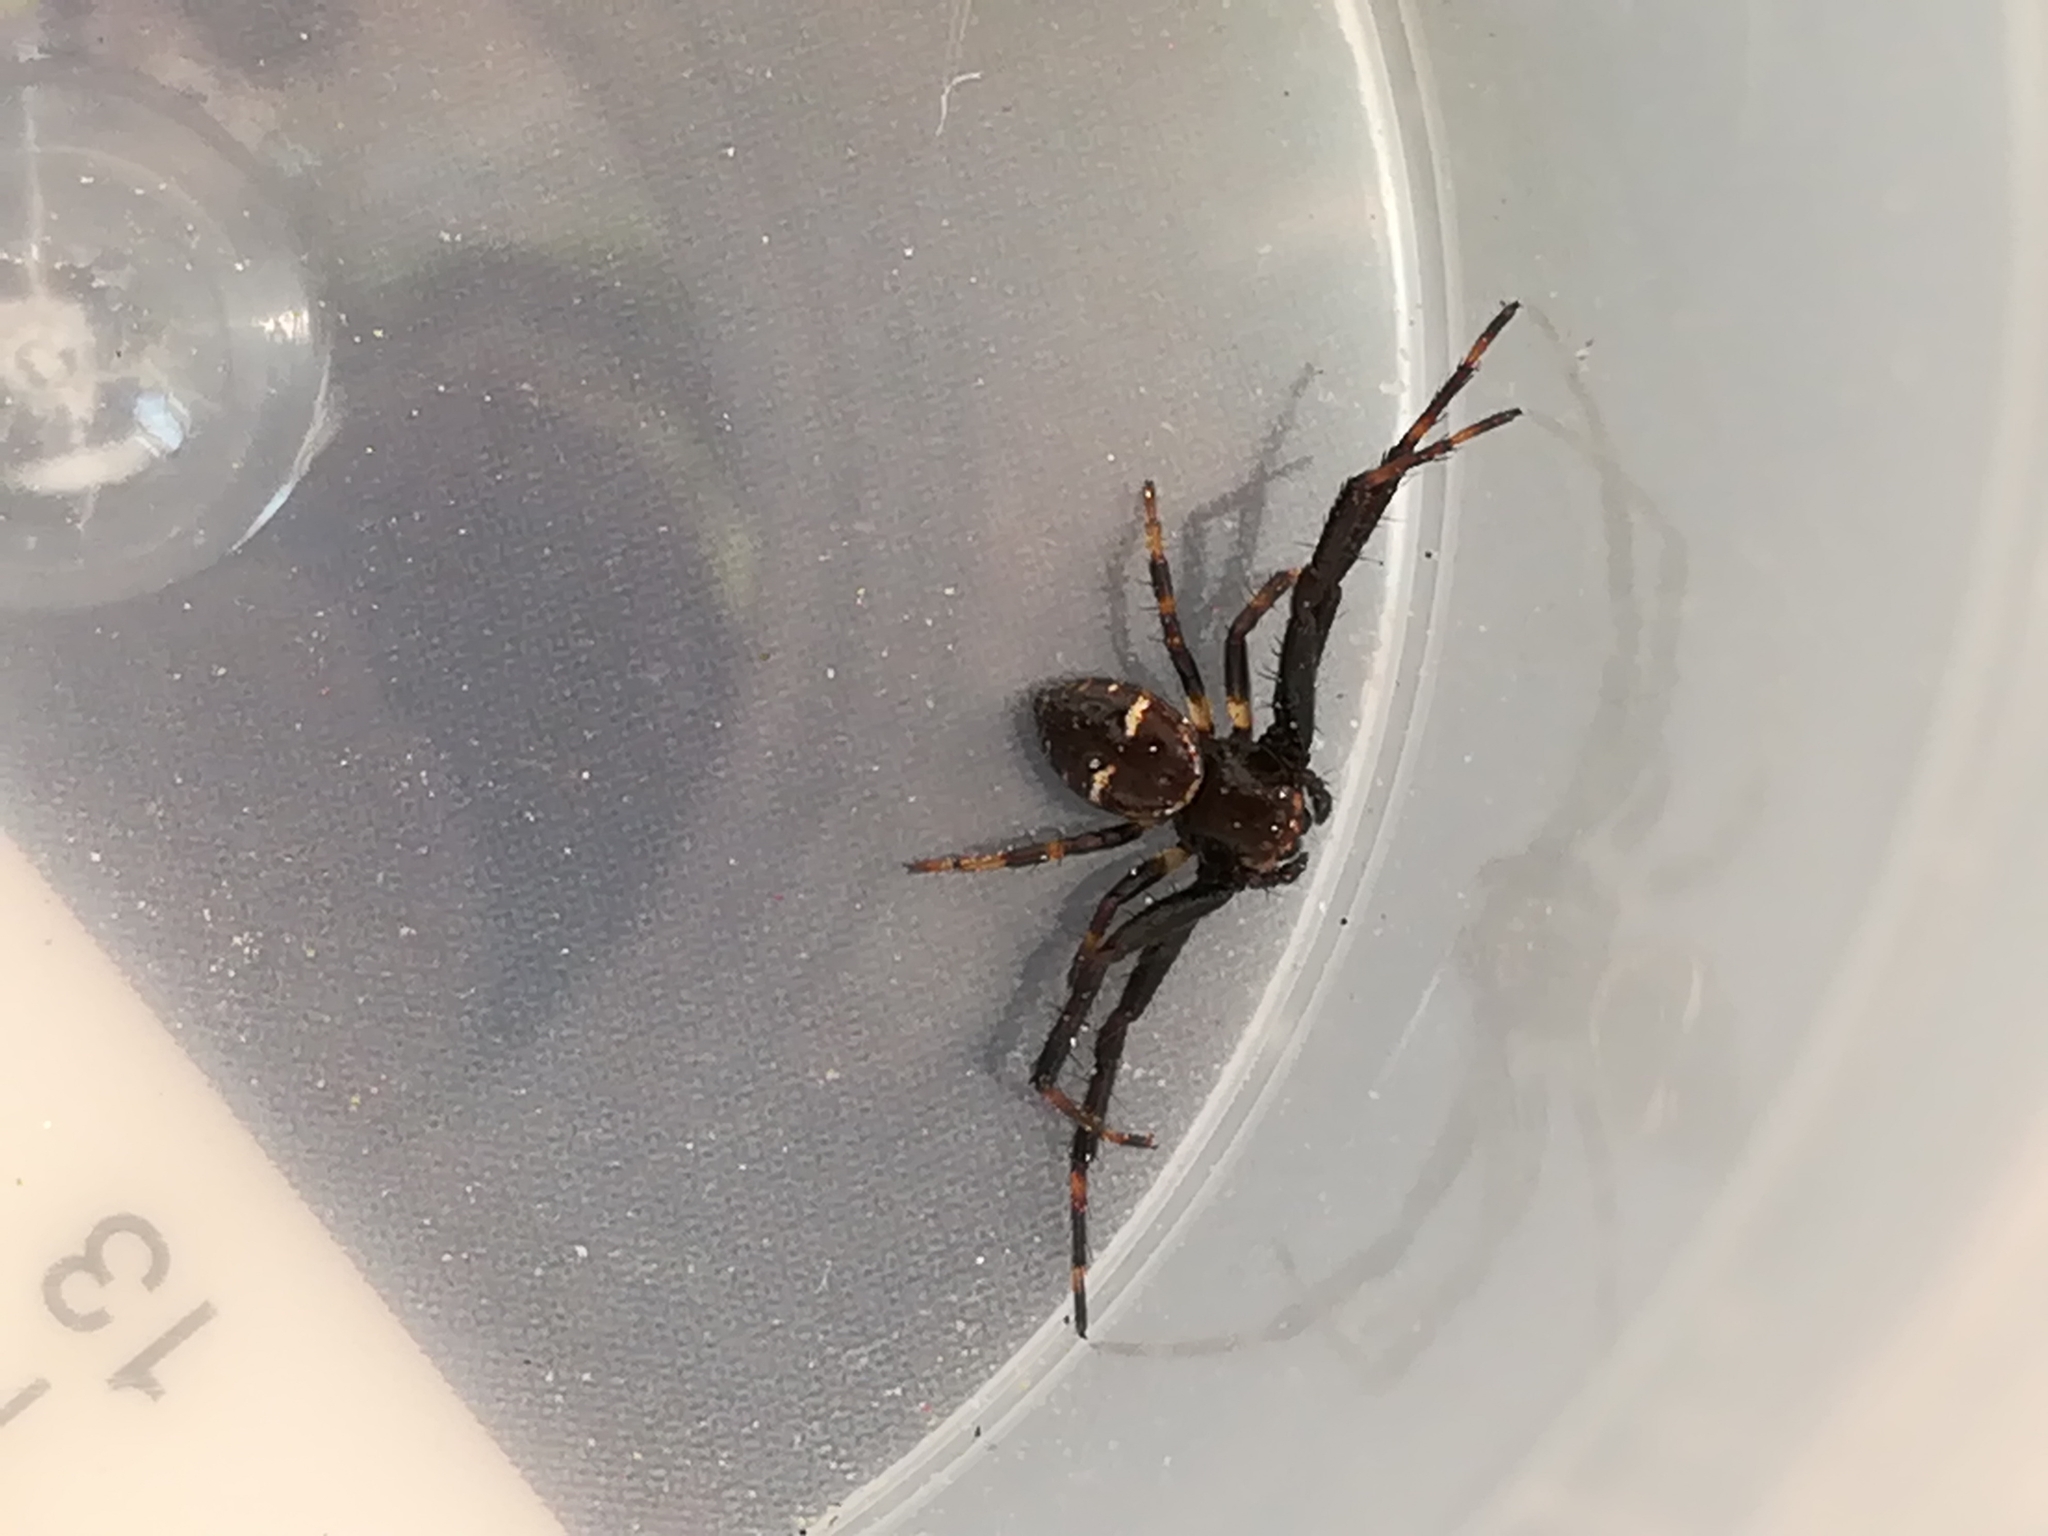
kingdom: Animalia
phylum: Arthropoda
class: Arachnida
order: Araneae
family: Thomisidae
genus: Synema
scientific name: Synema globosum
